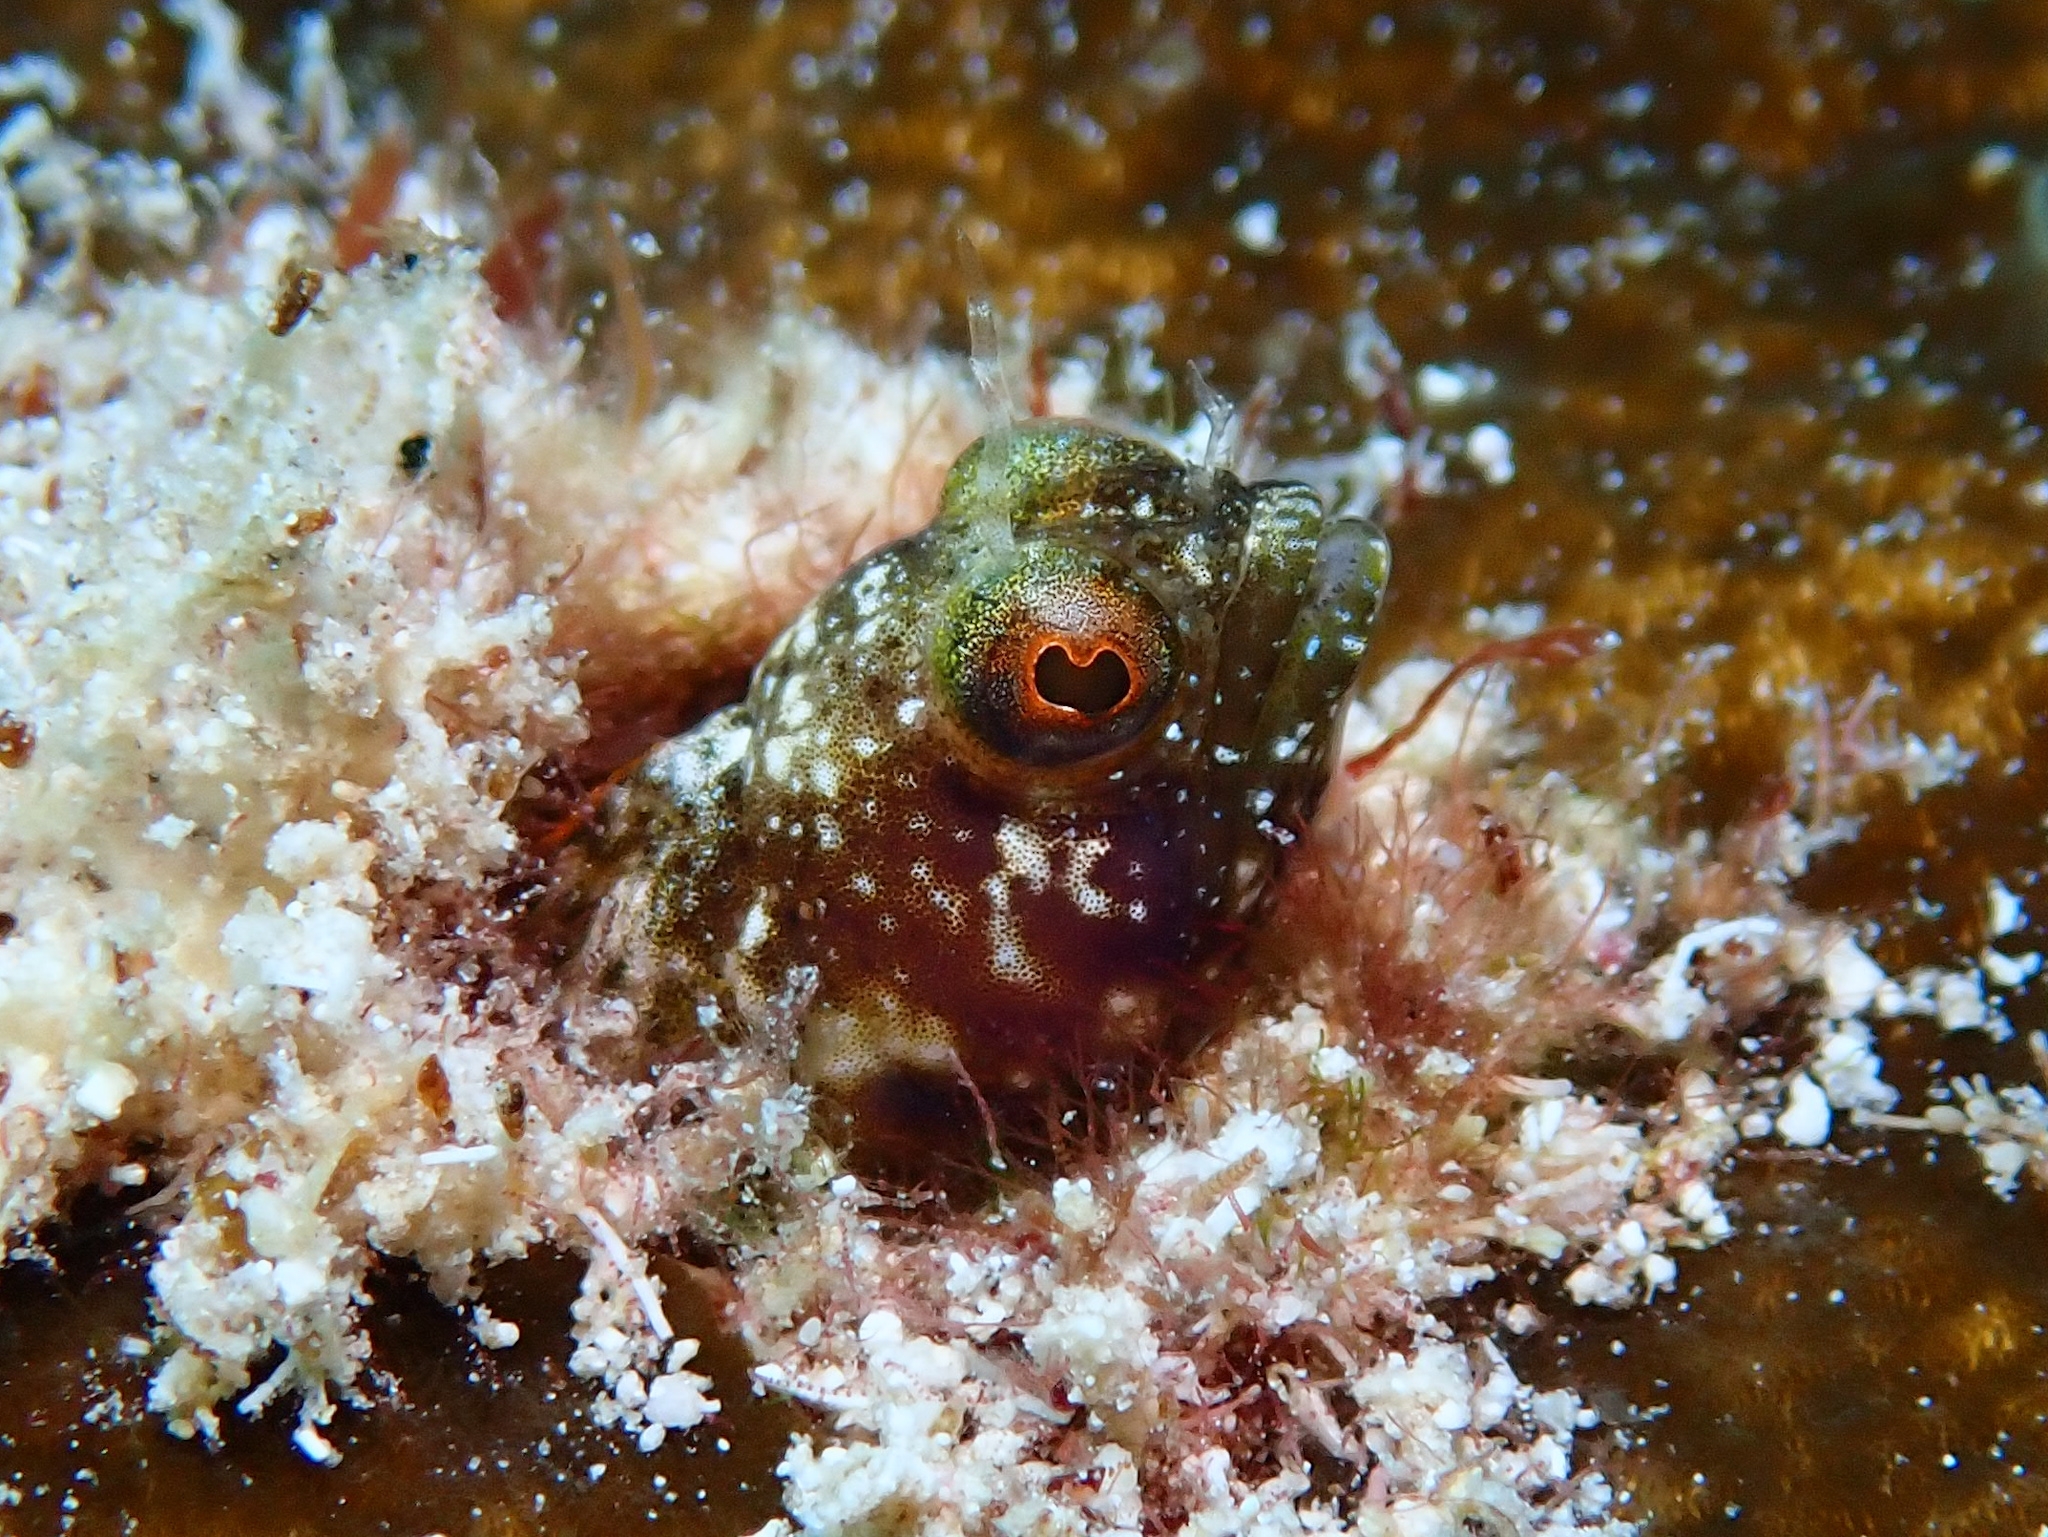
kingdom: Animalia
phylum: Chordata
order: Perciformes
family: Chaenopsidae
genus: Emblemaria
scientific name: Emblemaria pandionis
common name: Sailfin blenny
